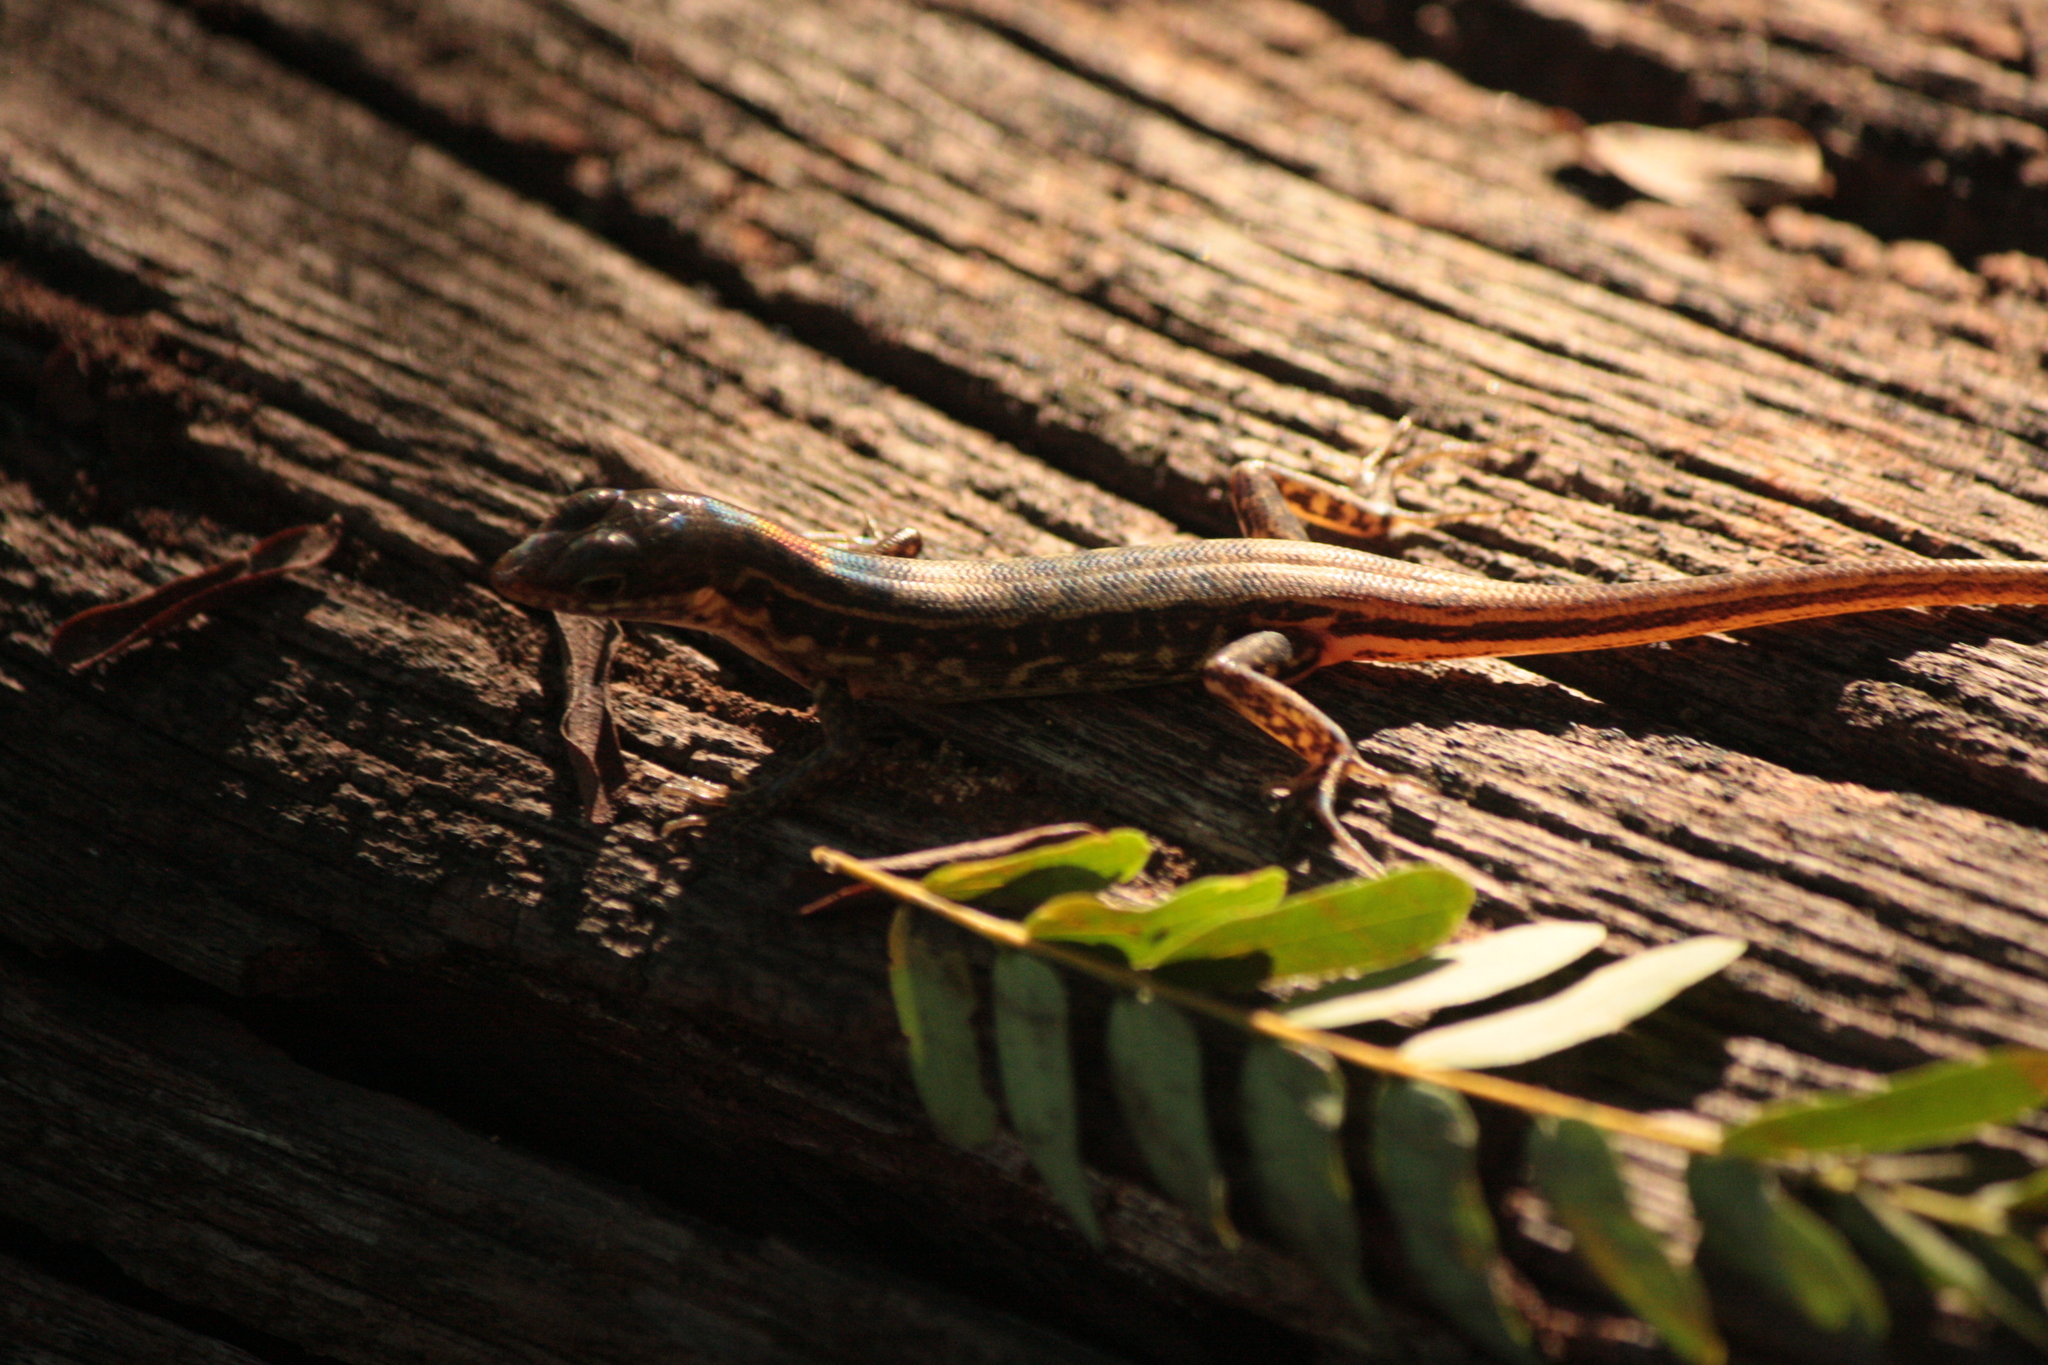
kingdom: Animalia
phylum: Chordata
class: Squamata
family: Scincidae
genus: Sphenomorphus
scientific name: Sphenomorphus melanopogon
